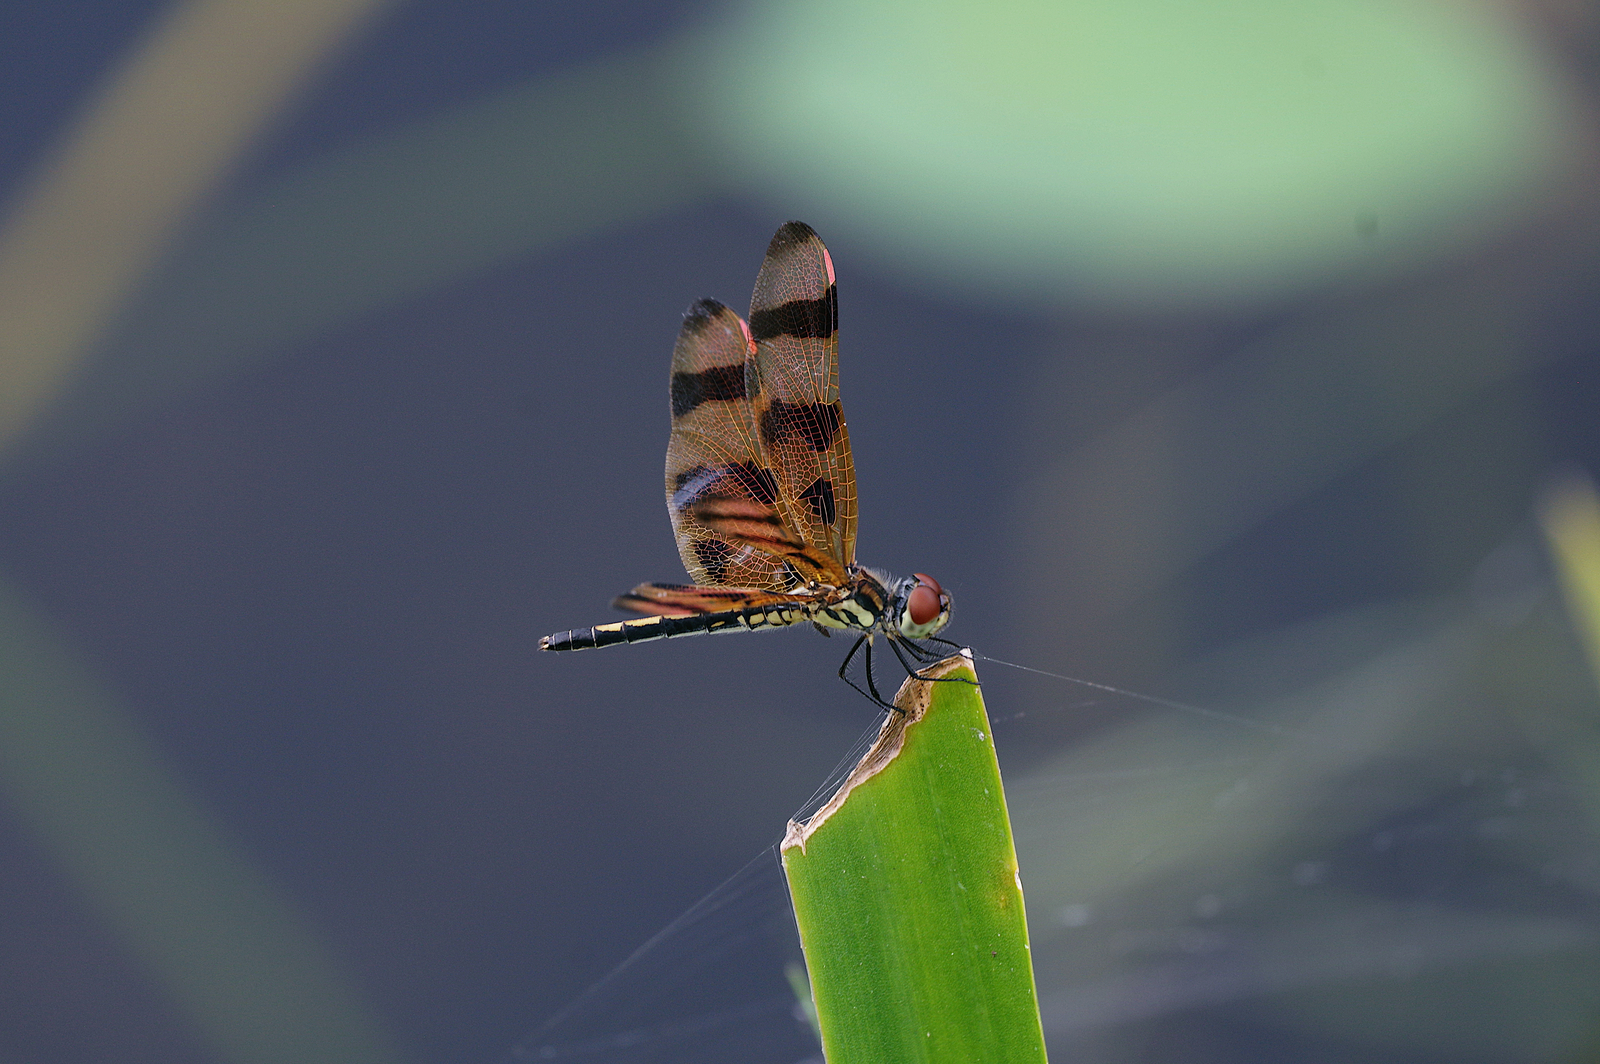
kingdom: Animalia
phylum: Arthropoda
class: Insecta
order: Odonata
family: Libellulidae
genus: Celithemis
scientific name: Celithemis eponina
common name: Halloween pennant
